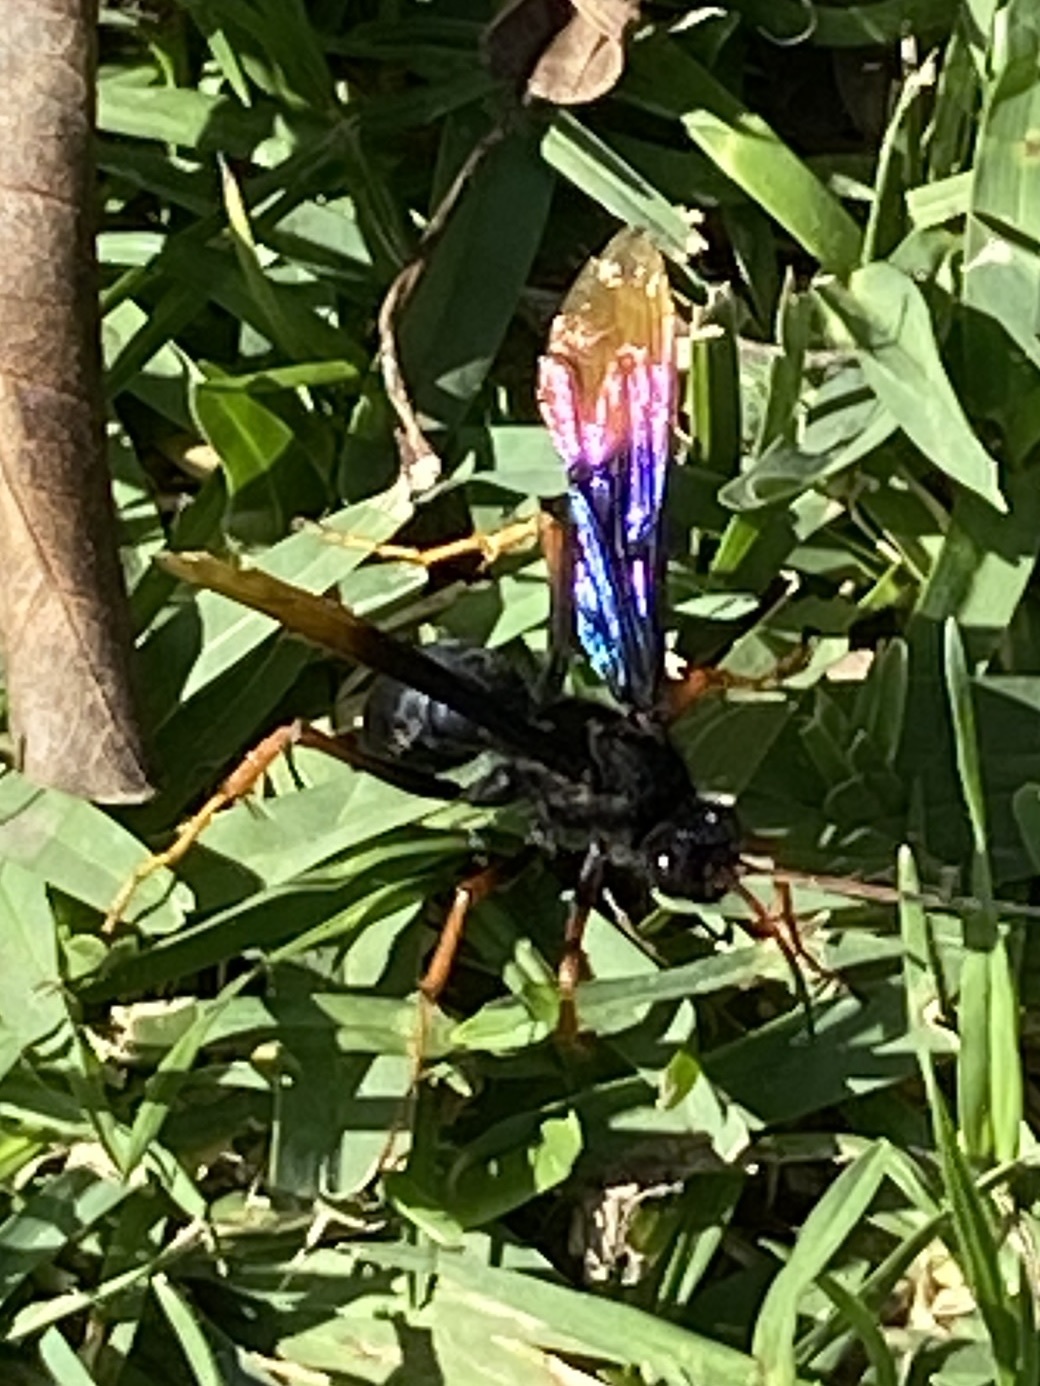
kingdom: Animalia
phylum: Arthropoda
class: Insecta
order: Hymenoptera
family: Pompilidae
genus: Java
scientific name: Java caroliwaterhousei
